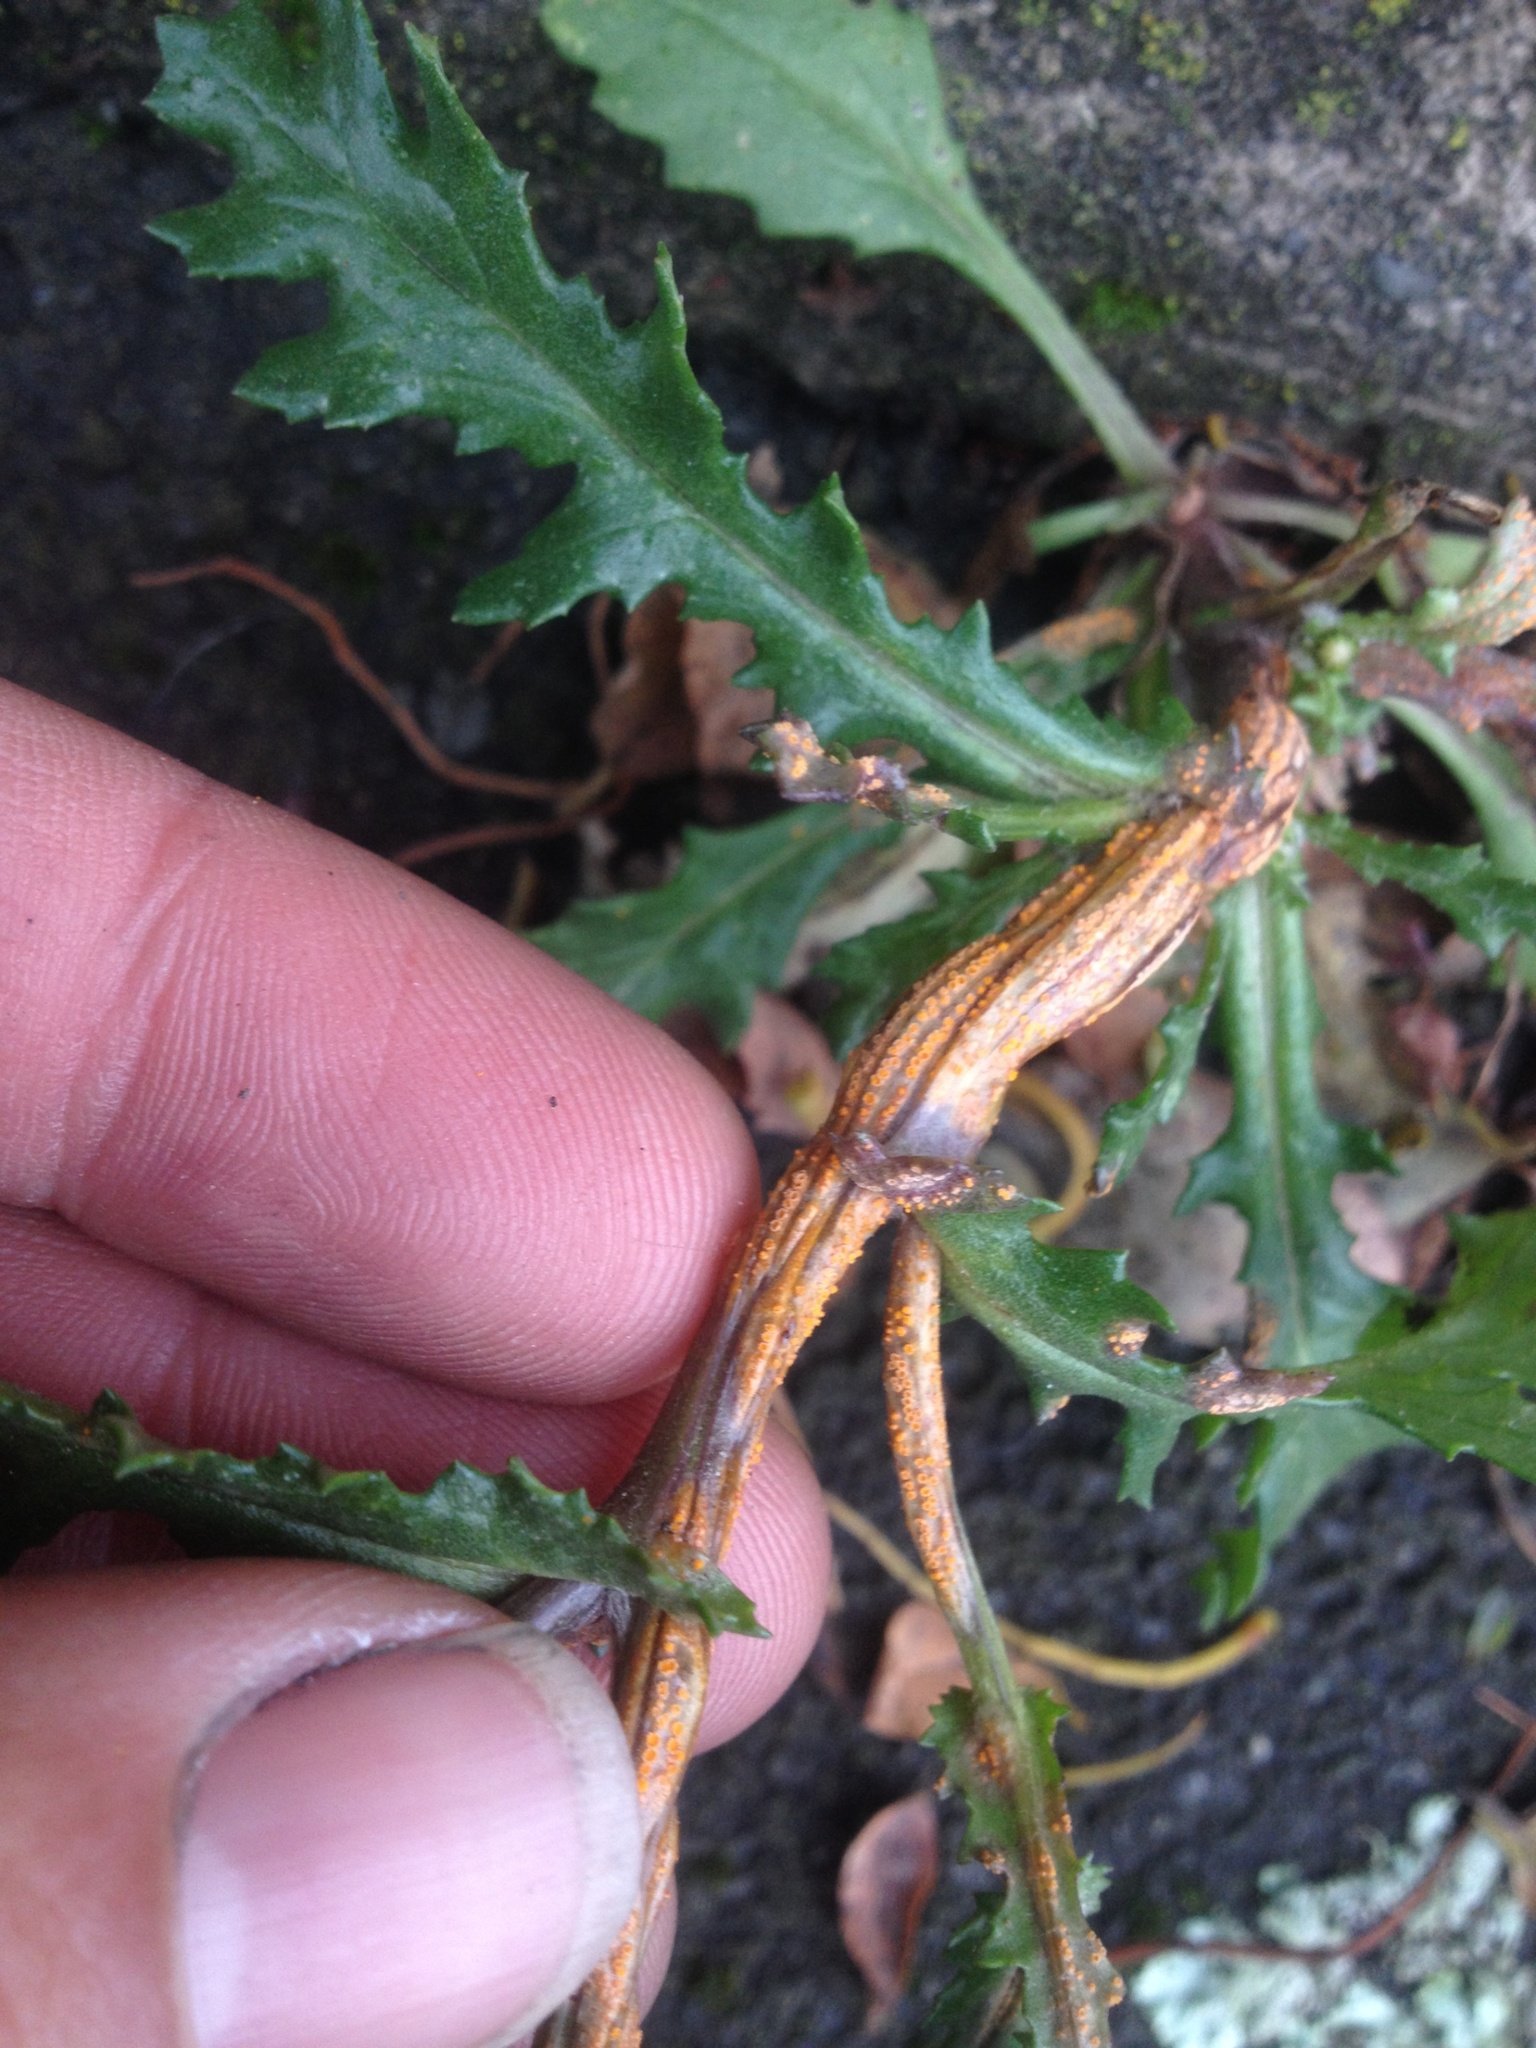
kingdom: Fungi
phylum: Basidiomycota
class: Pucciniomycetes
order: Pucciniales
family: Pucciniaceae
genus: Puccinia
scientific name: Puccinia lagenophorae
